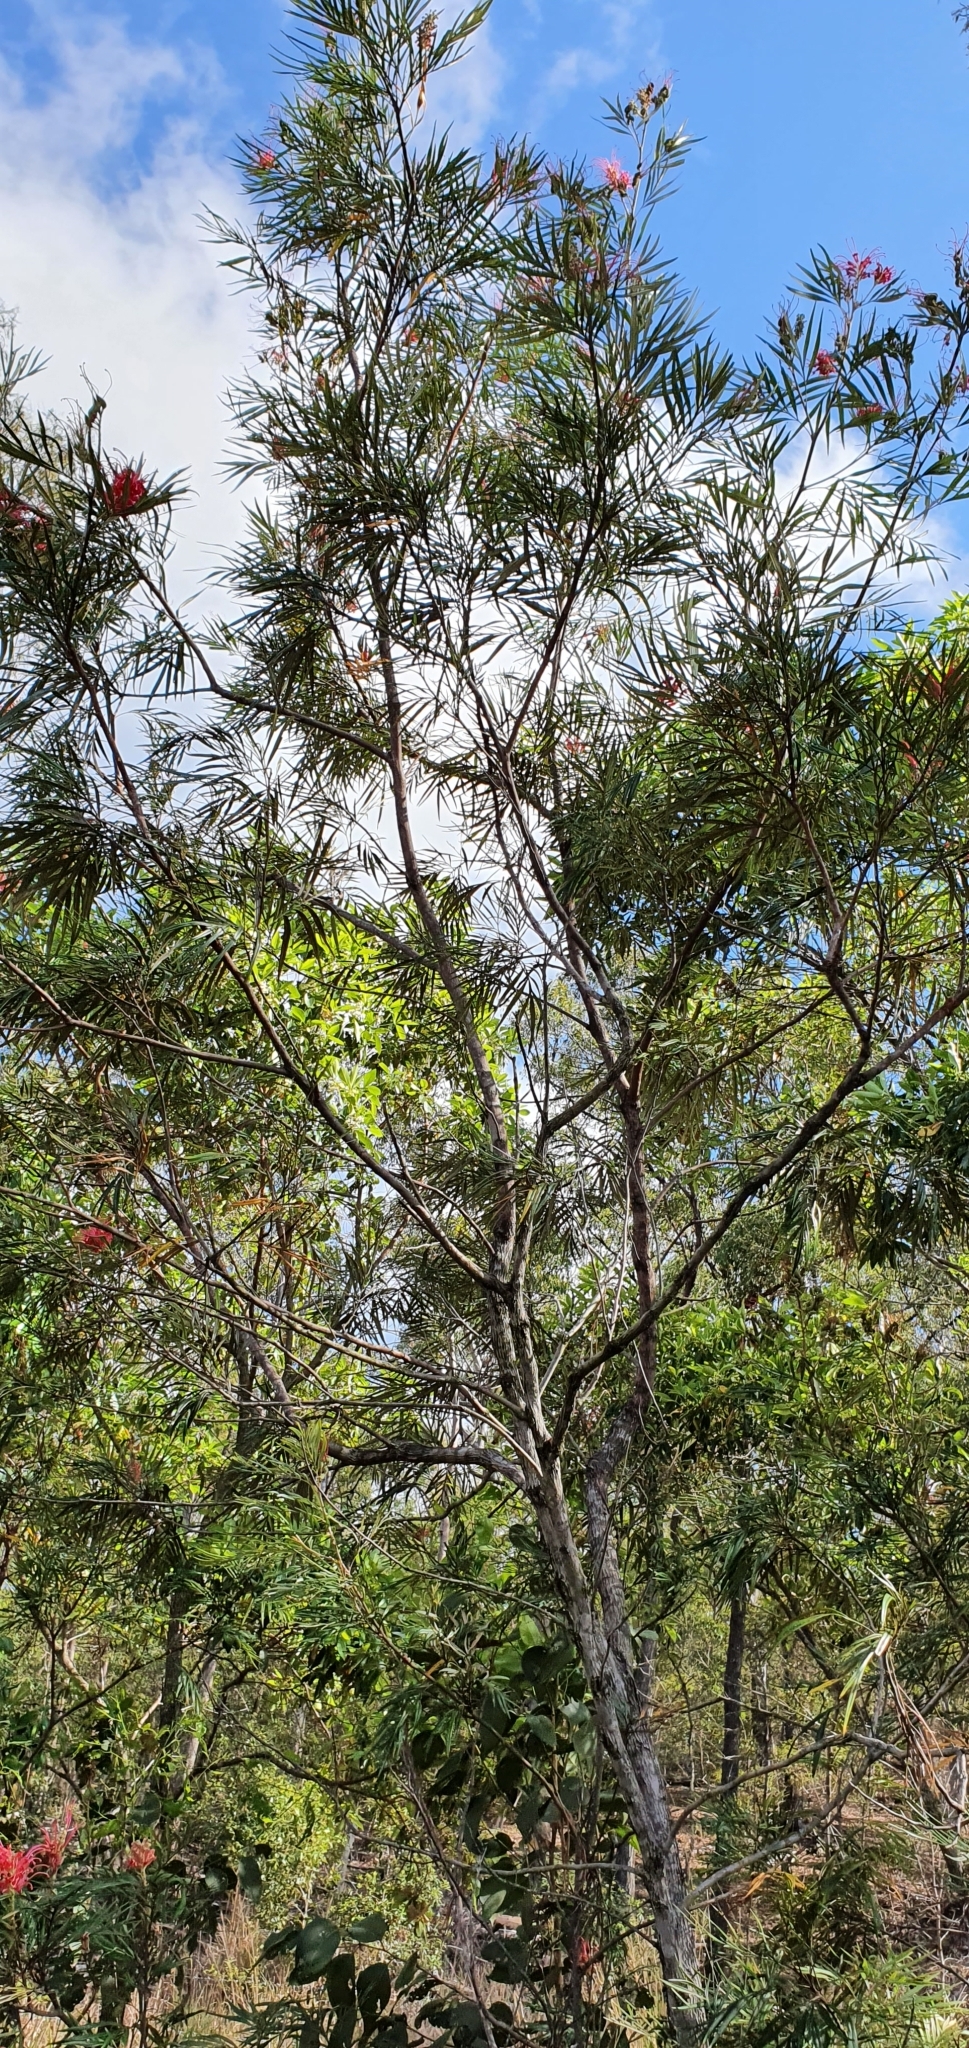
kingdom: Plantae
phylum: Tracheophyta
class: Magnoliopsida
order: Proteales
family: Proteaceae
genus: Grevillea
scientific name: Grevillea banksii
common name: Kahili flower
